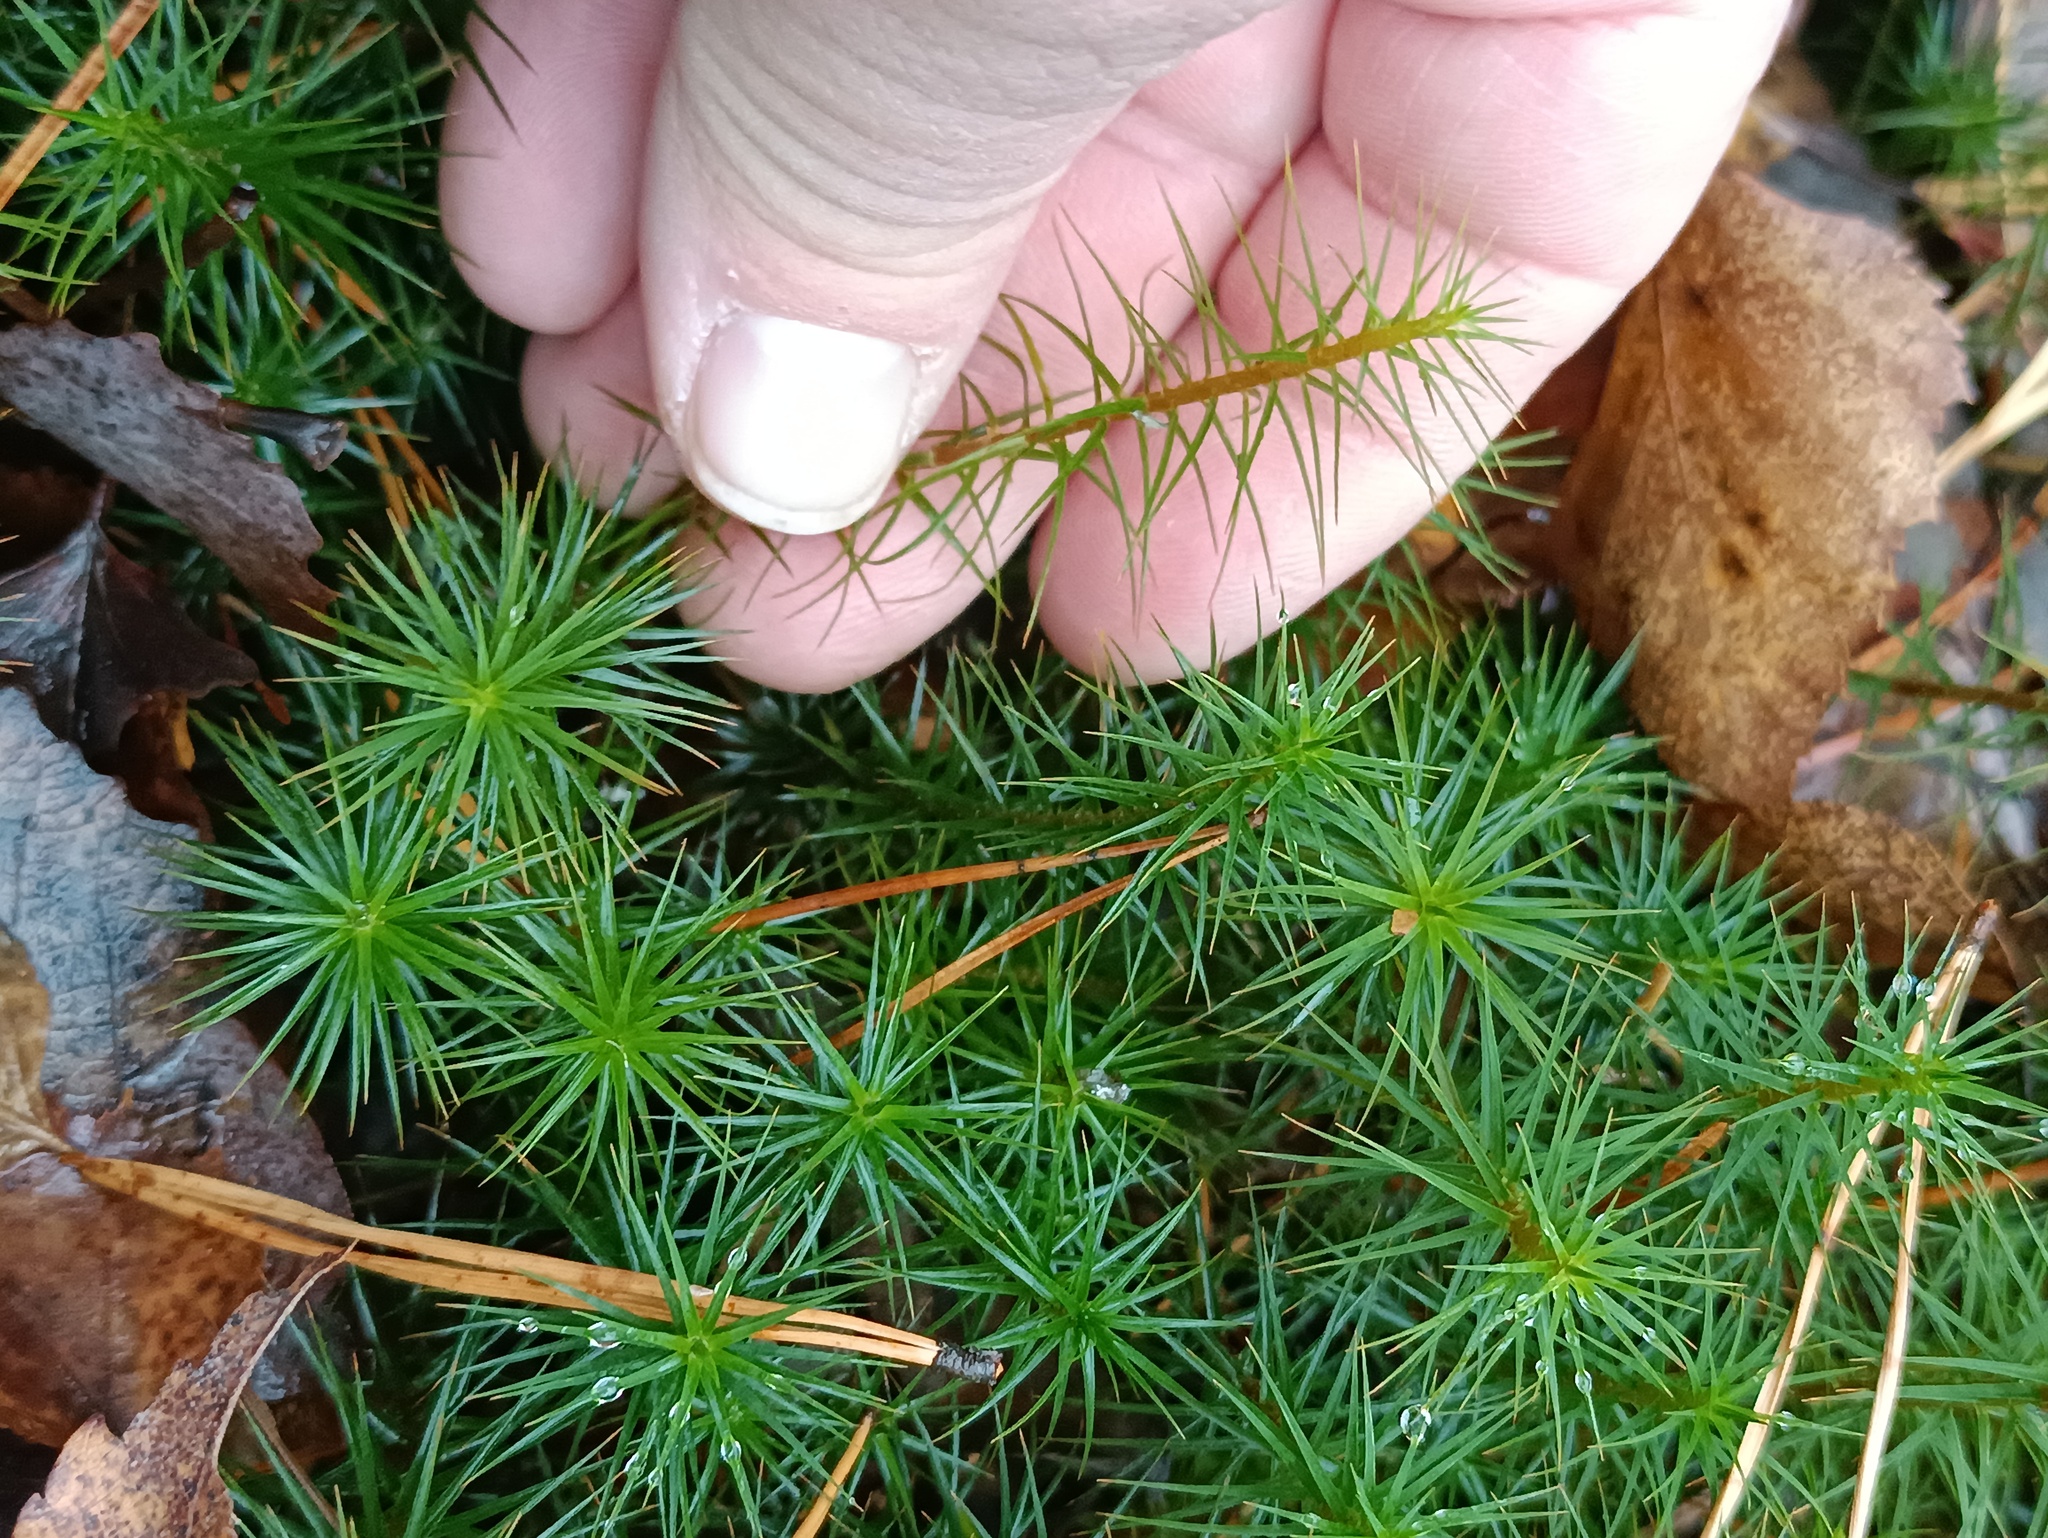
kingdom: Plantae
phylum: Bryophyta
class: Polytrichopsida
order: Polytrichales
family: Polytrichaceae
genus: Polytrichum
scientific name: Polytrichum commune
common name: Common haircap
